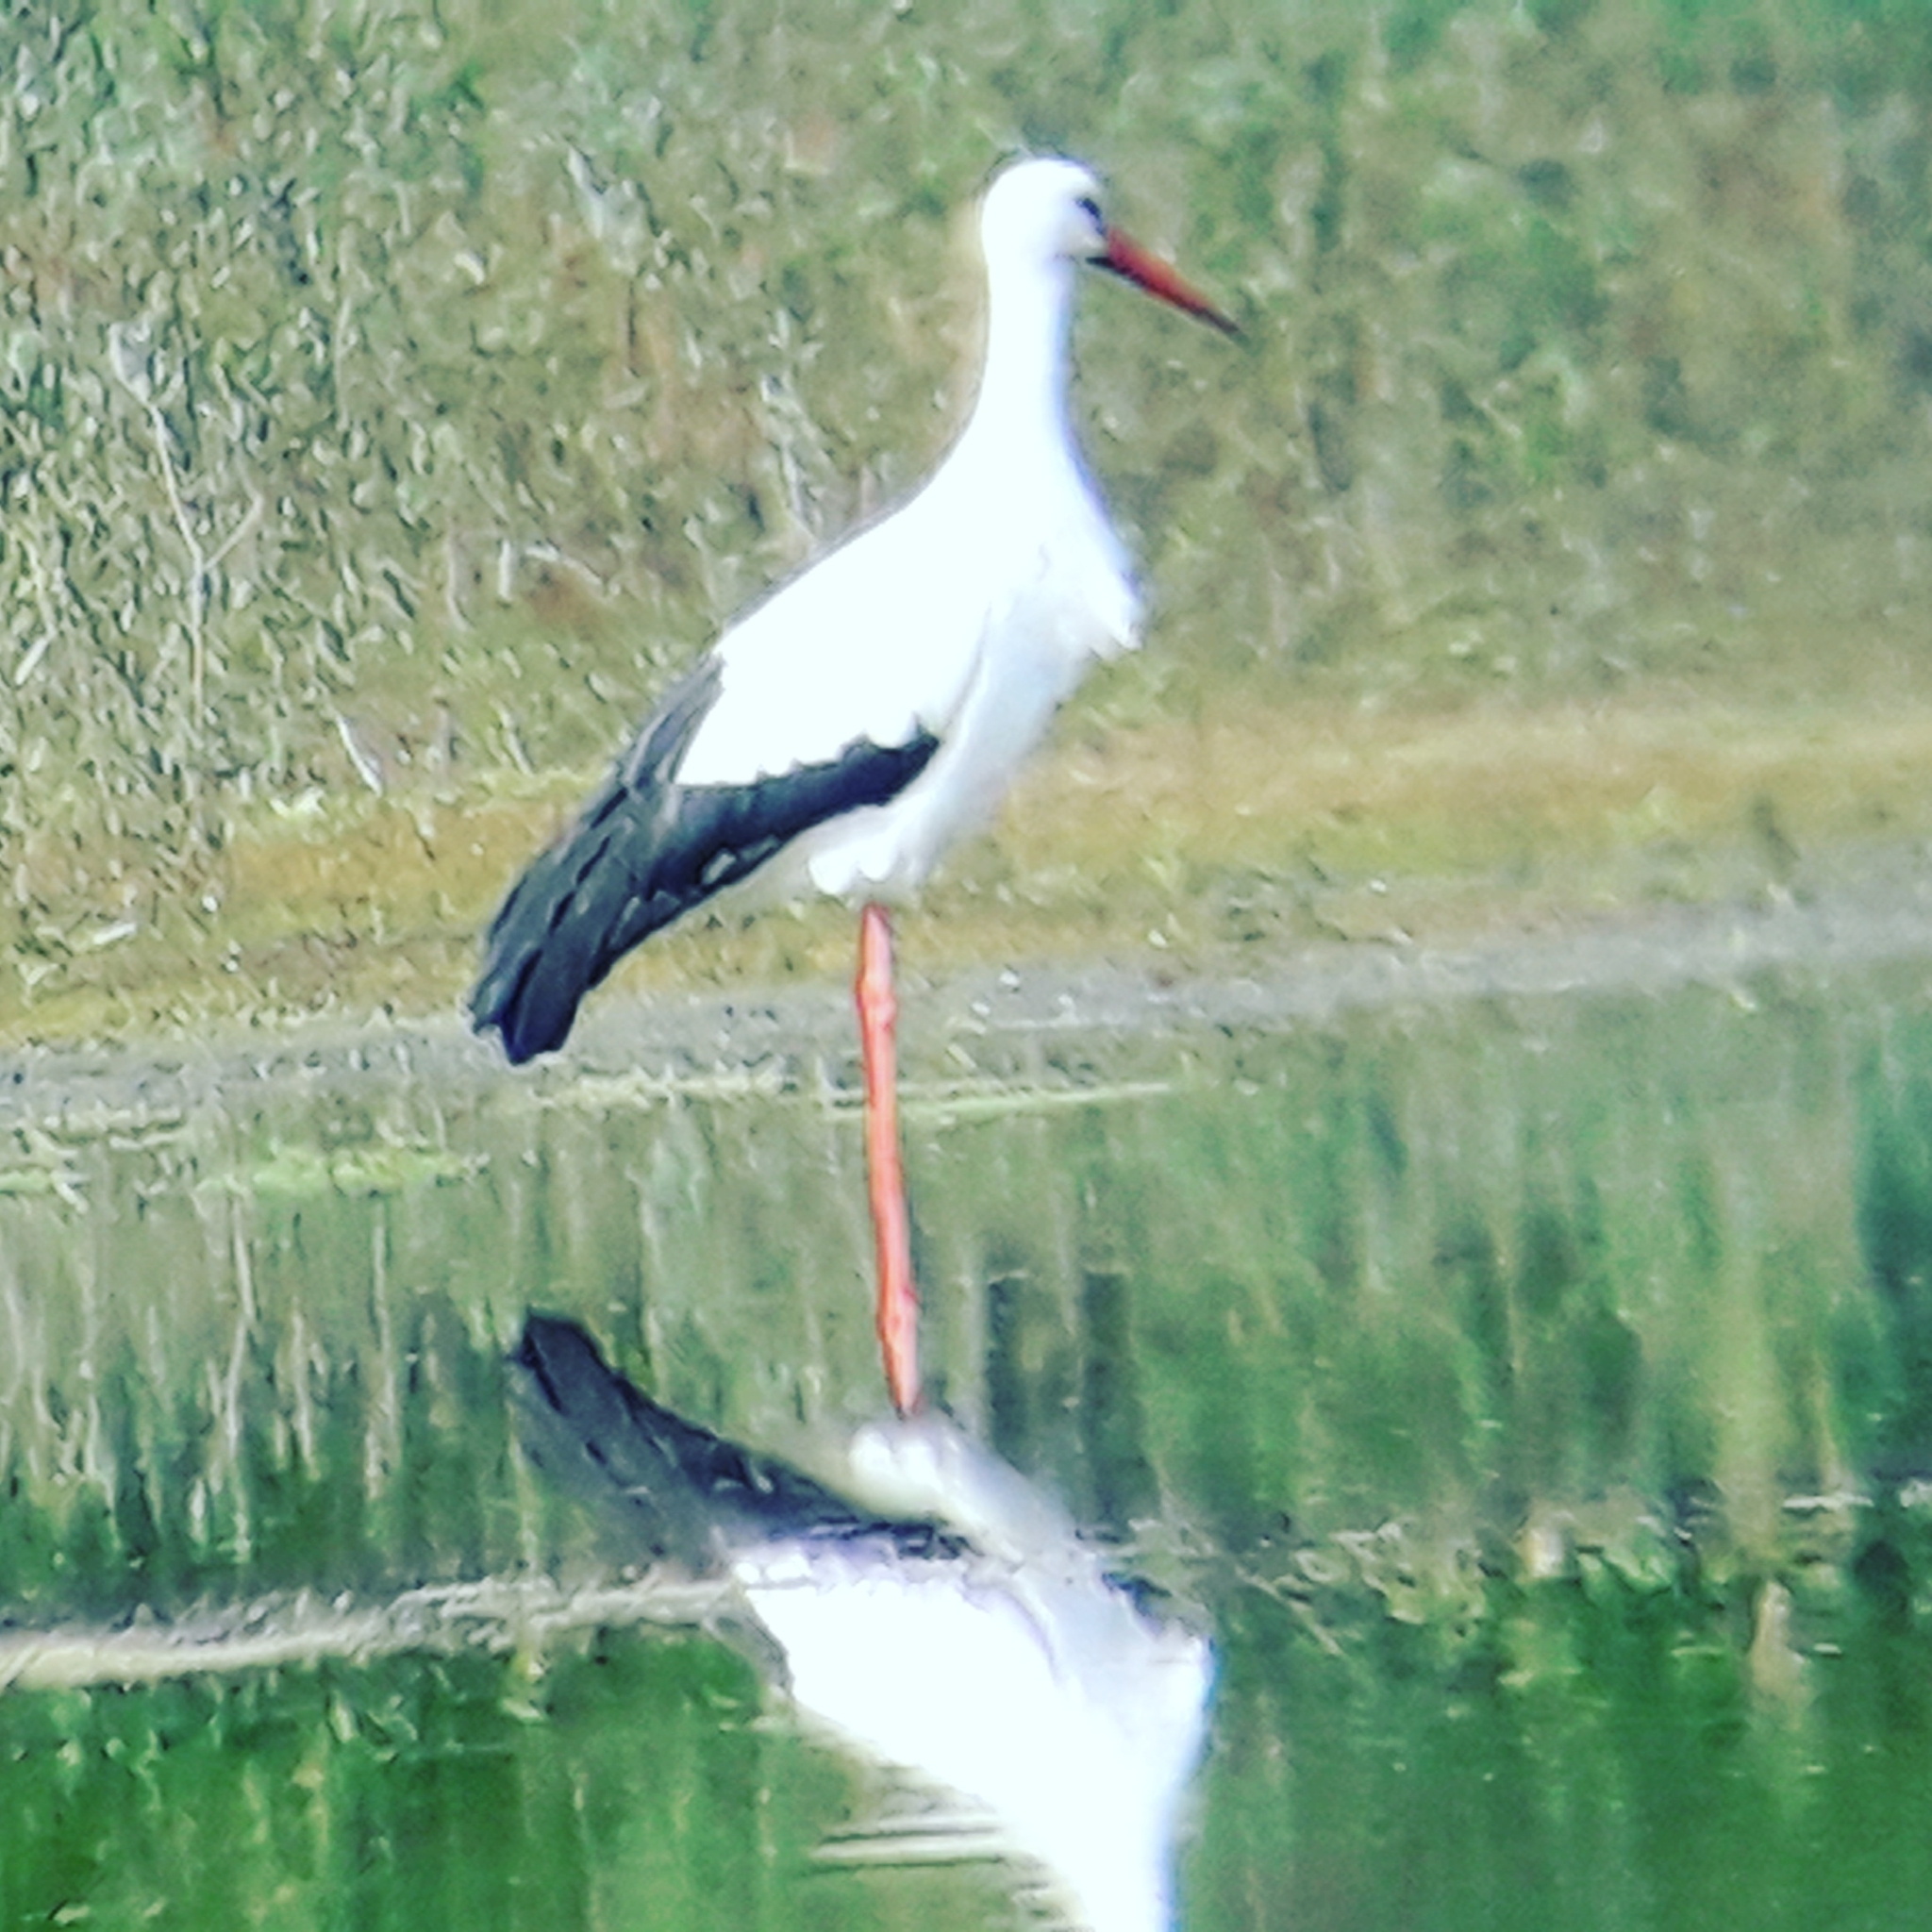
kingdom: Animalia
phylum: Chordata
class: Aves
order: Ciconiiformes
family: Ciconiidae
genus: Ciconia
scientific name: Ciconia ciconia
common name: White stork
